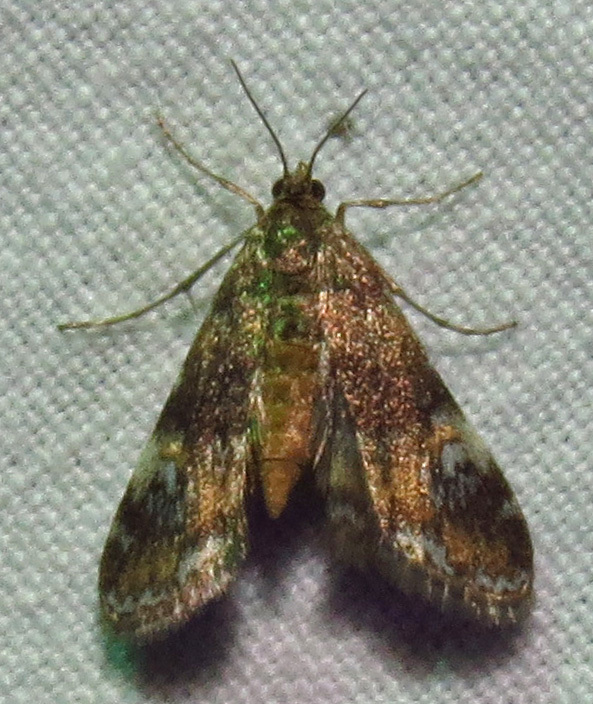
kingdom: Animalia
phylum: Arthropoda
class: Insecta
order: Lepidoptera
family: Crambidae
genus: Elophila
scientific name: Elophila obliteralis
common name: Waterlily leafcutter moth
